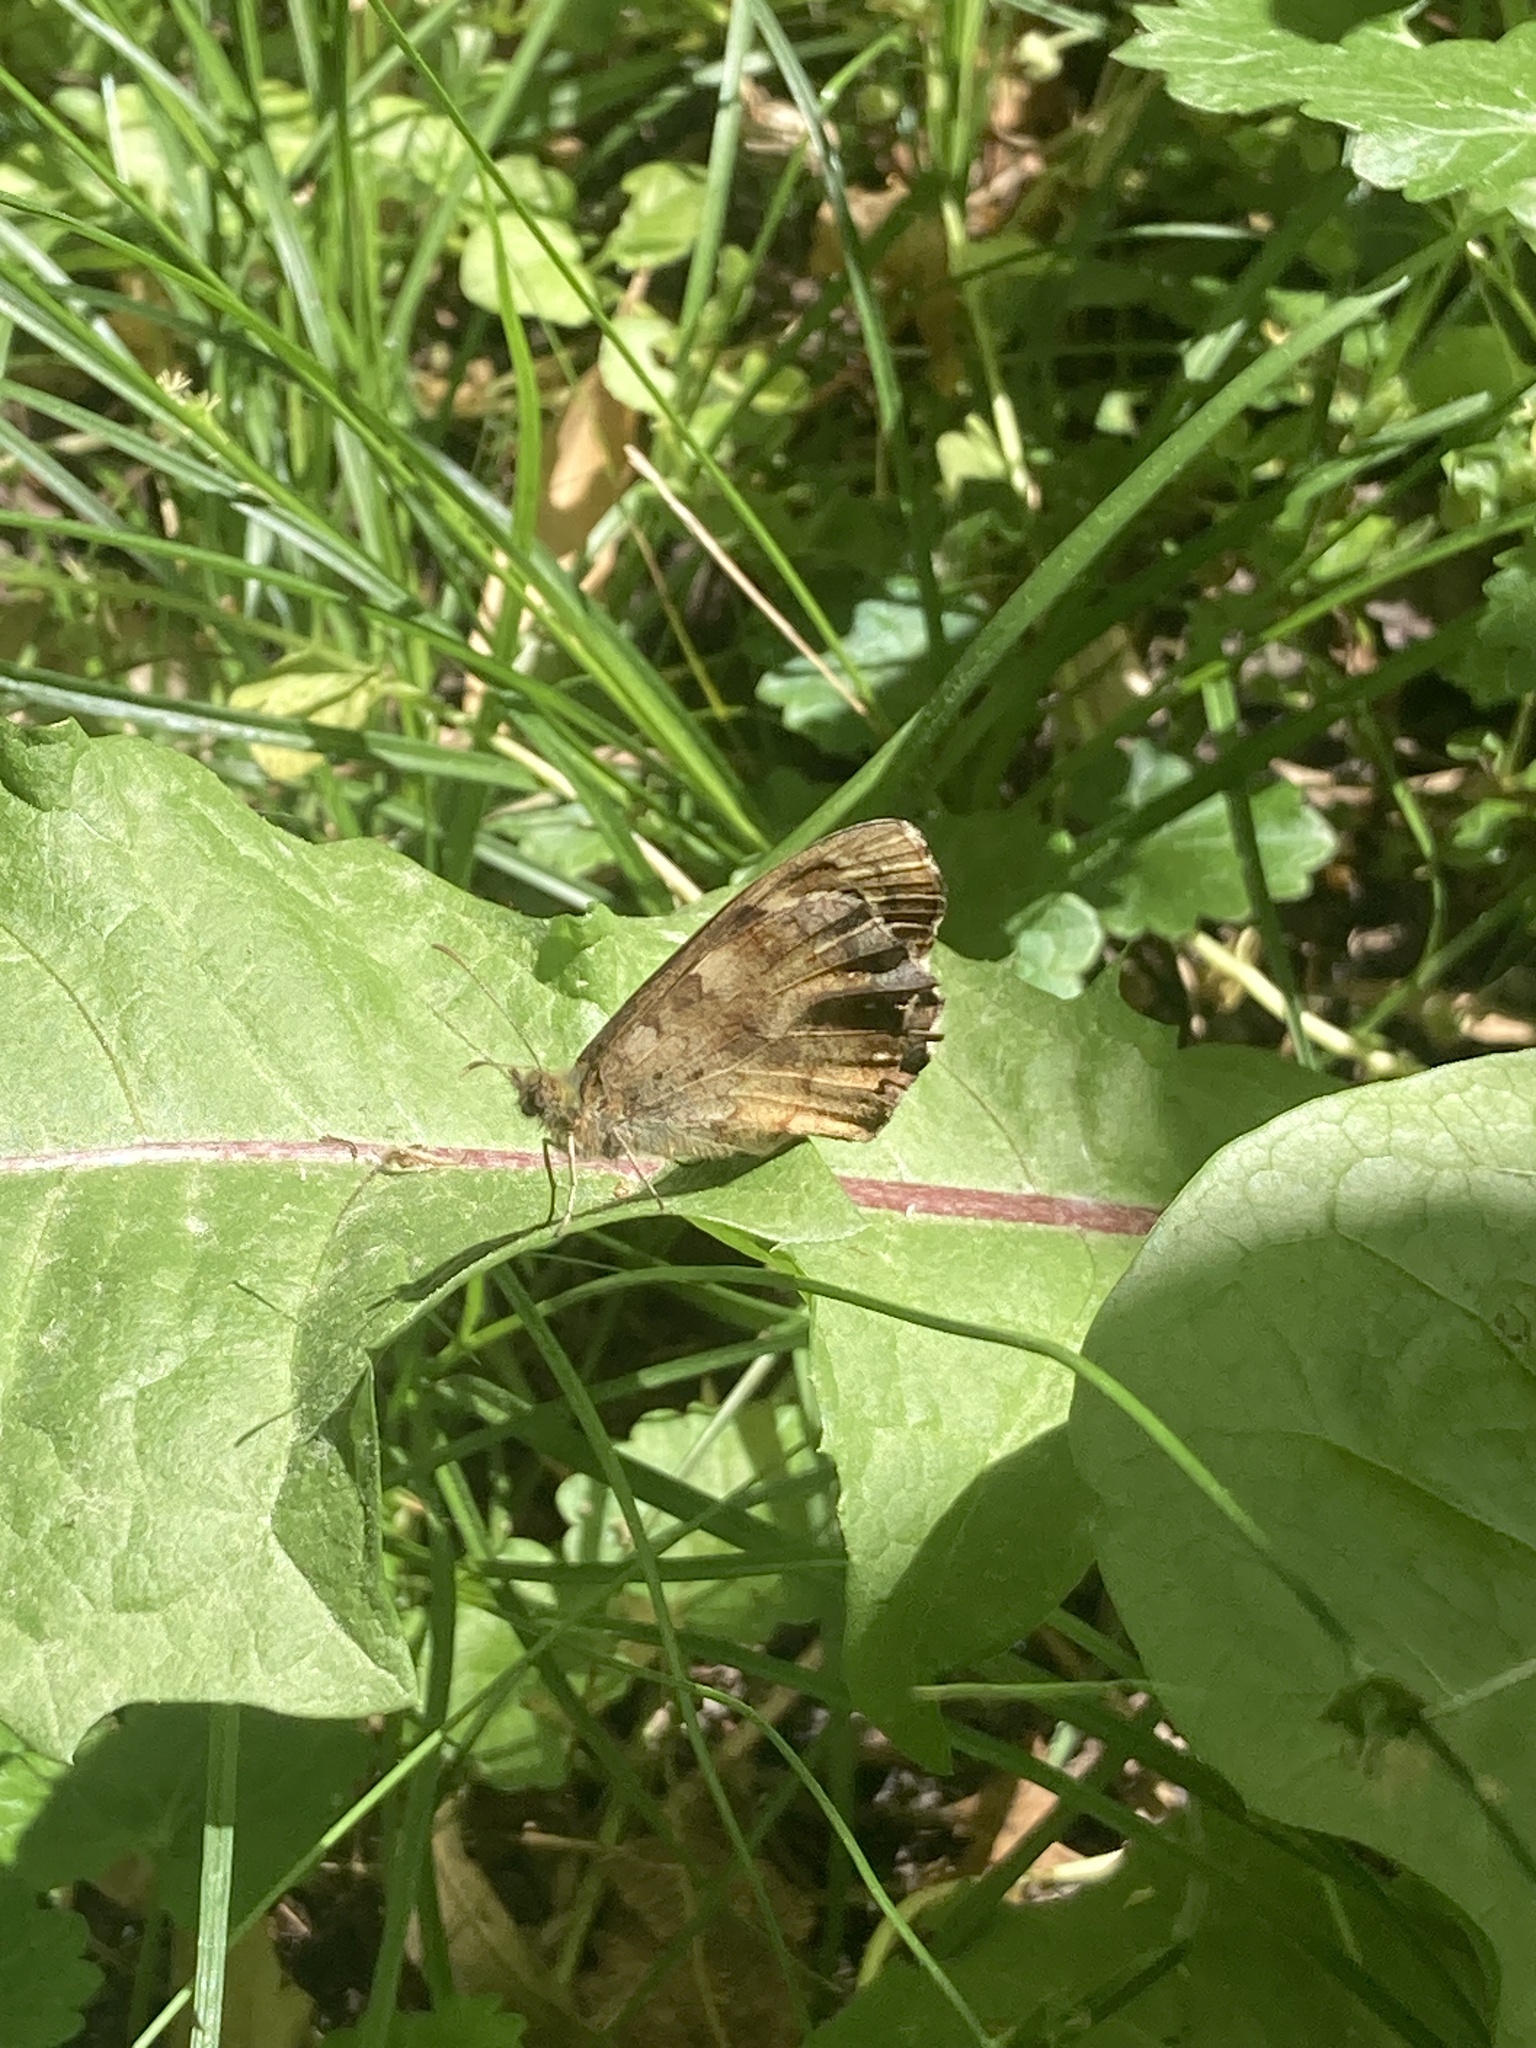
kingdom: Animalia
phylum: Arthropoda
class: Insecta
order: Lepidoptera
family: Nymphalidae
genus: Pararge
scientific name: Pararge aegeria
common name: Speckled wood
